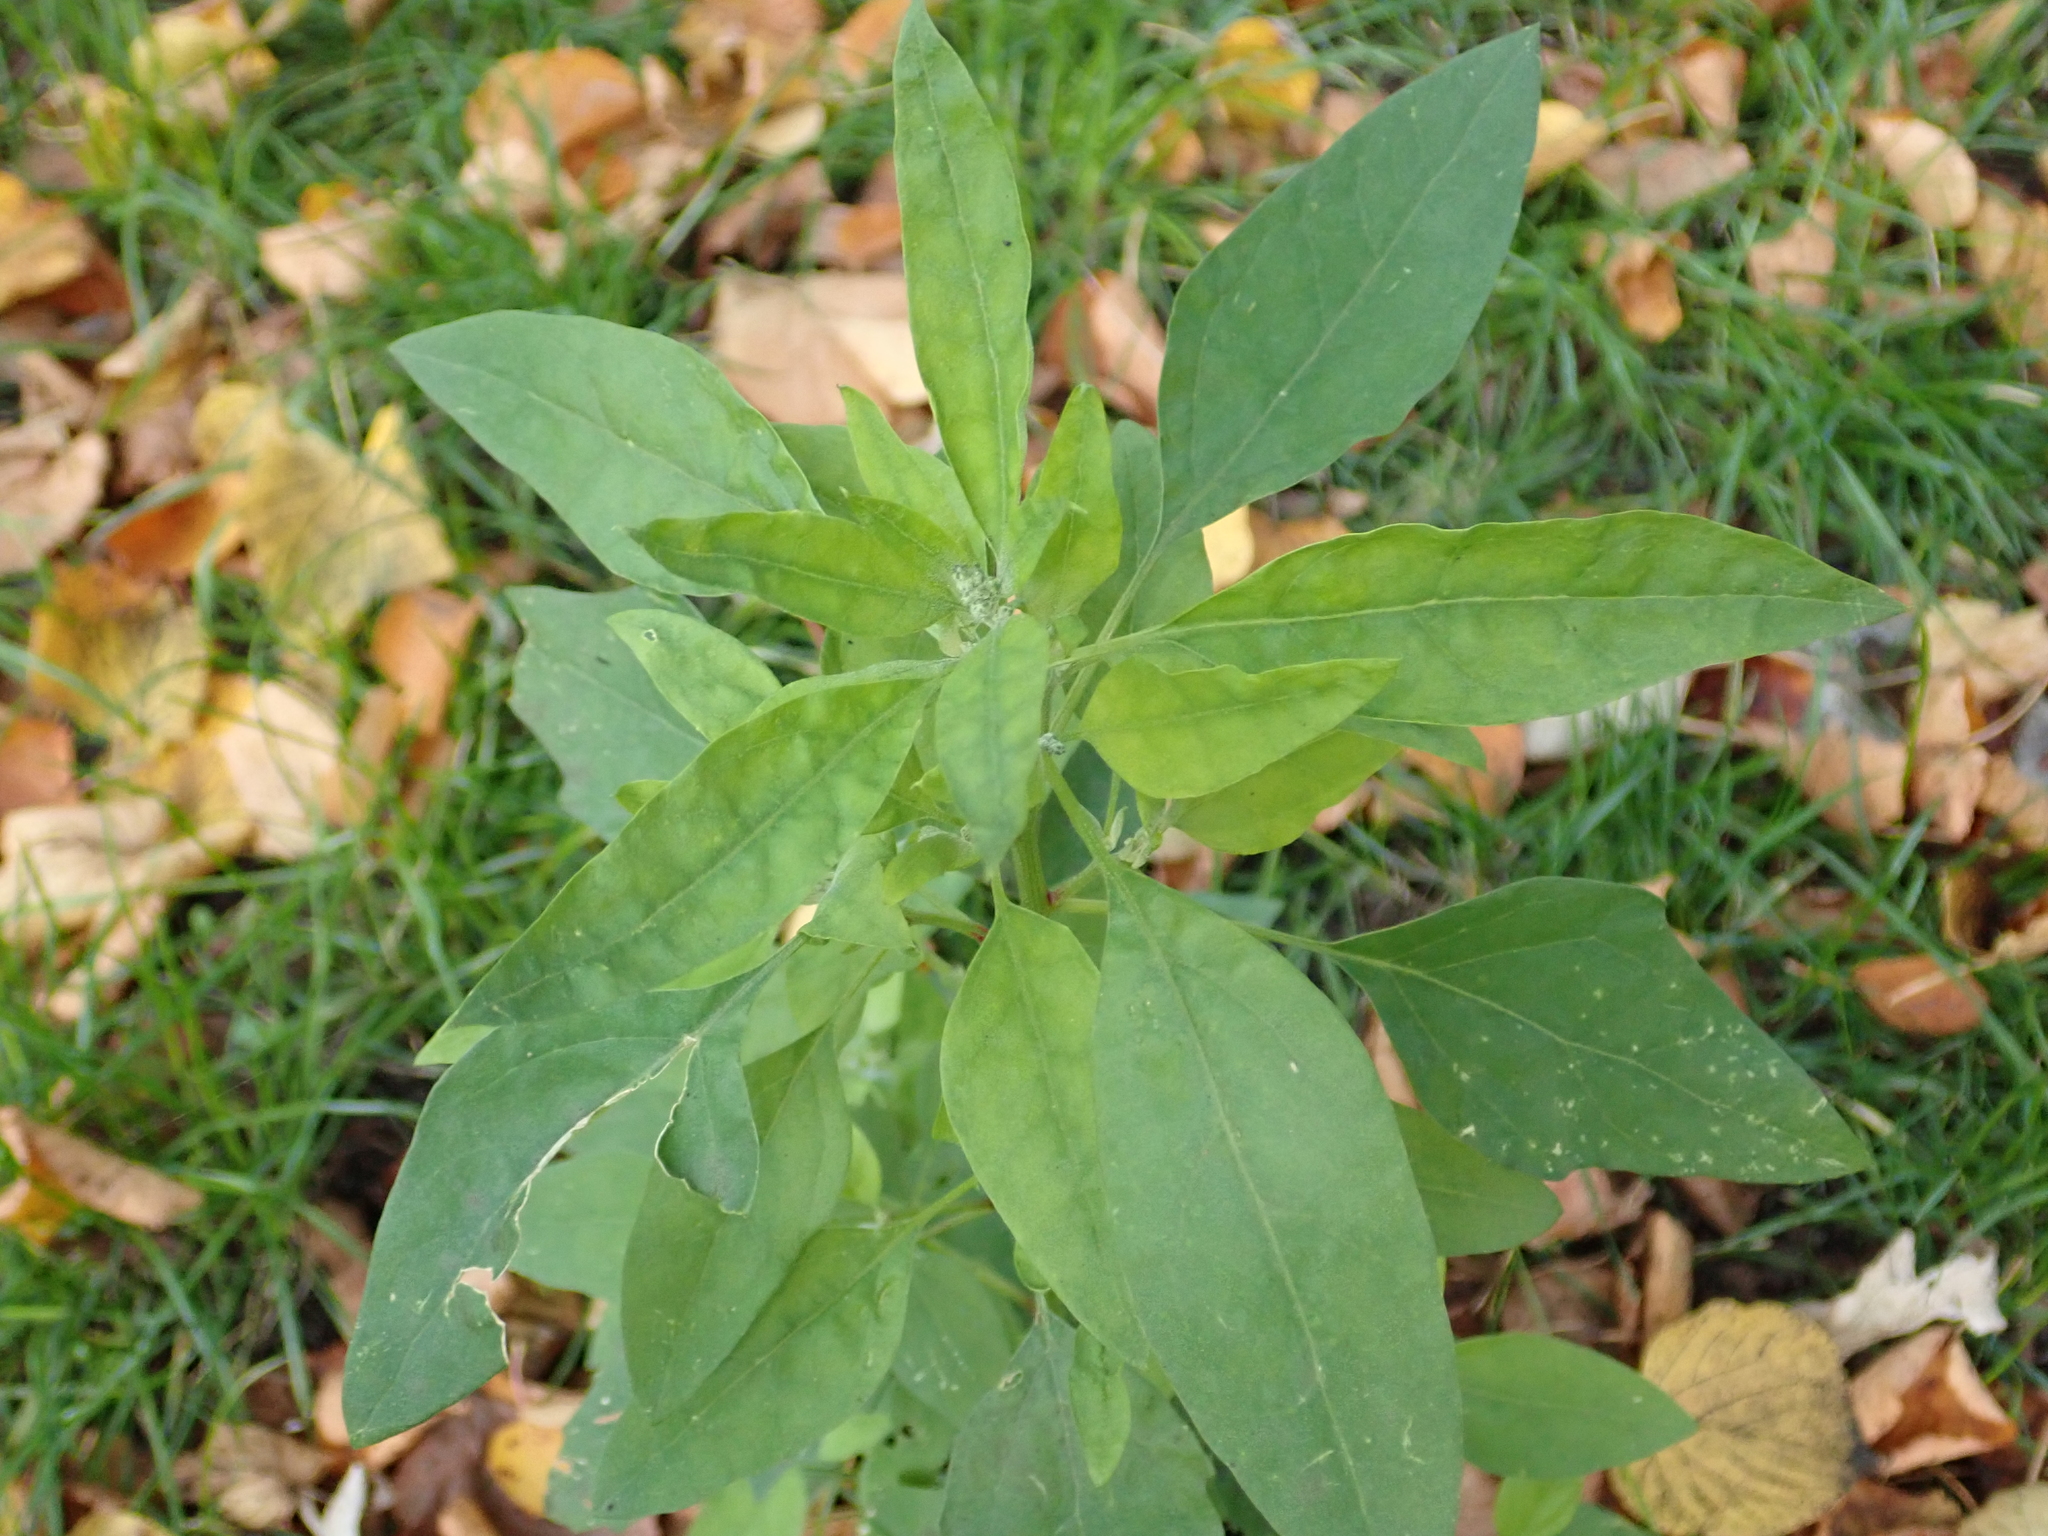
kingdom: Plantae
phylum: Tracheophyta
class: Magnoliopsida
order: Caryophyllales
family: Amaranthaceae
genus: Chenopodium
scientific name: Chenopodium album
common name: Fat-hen
